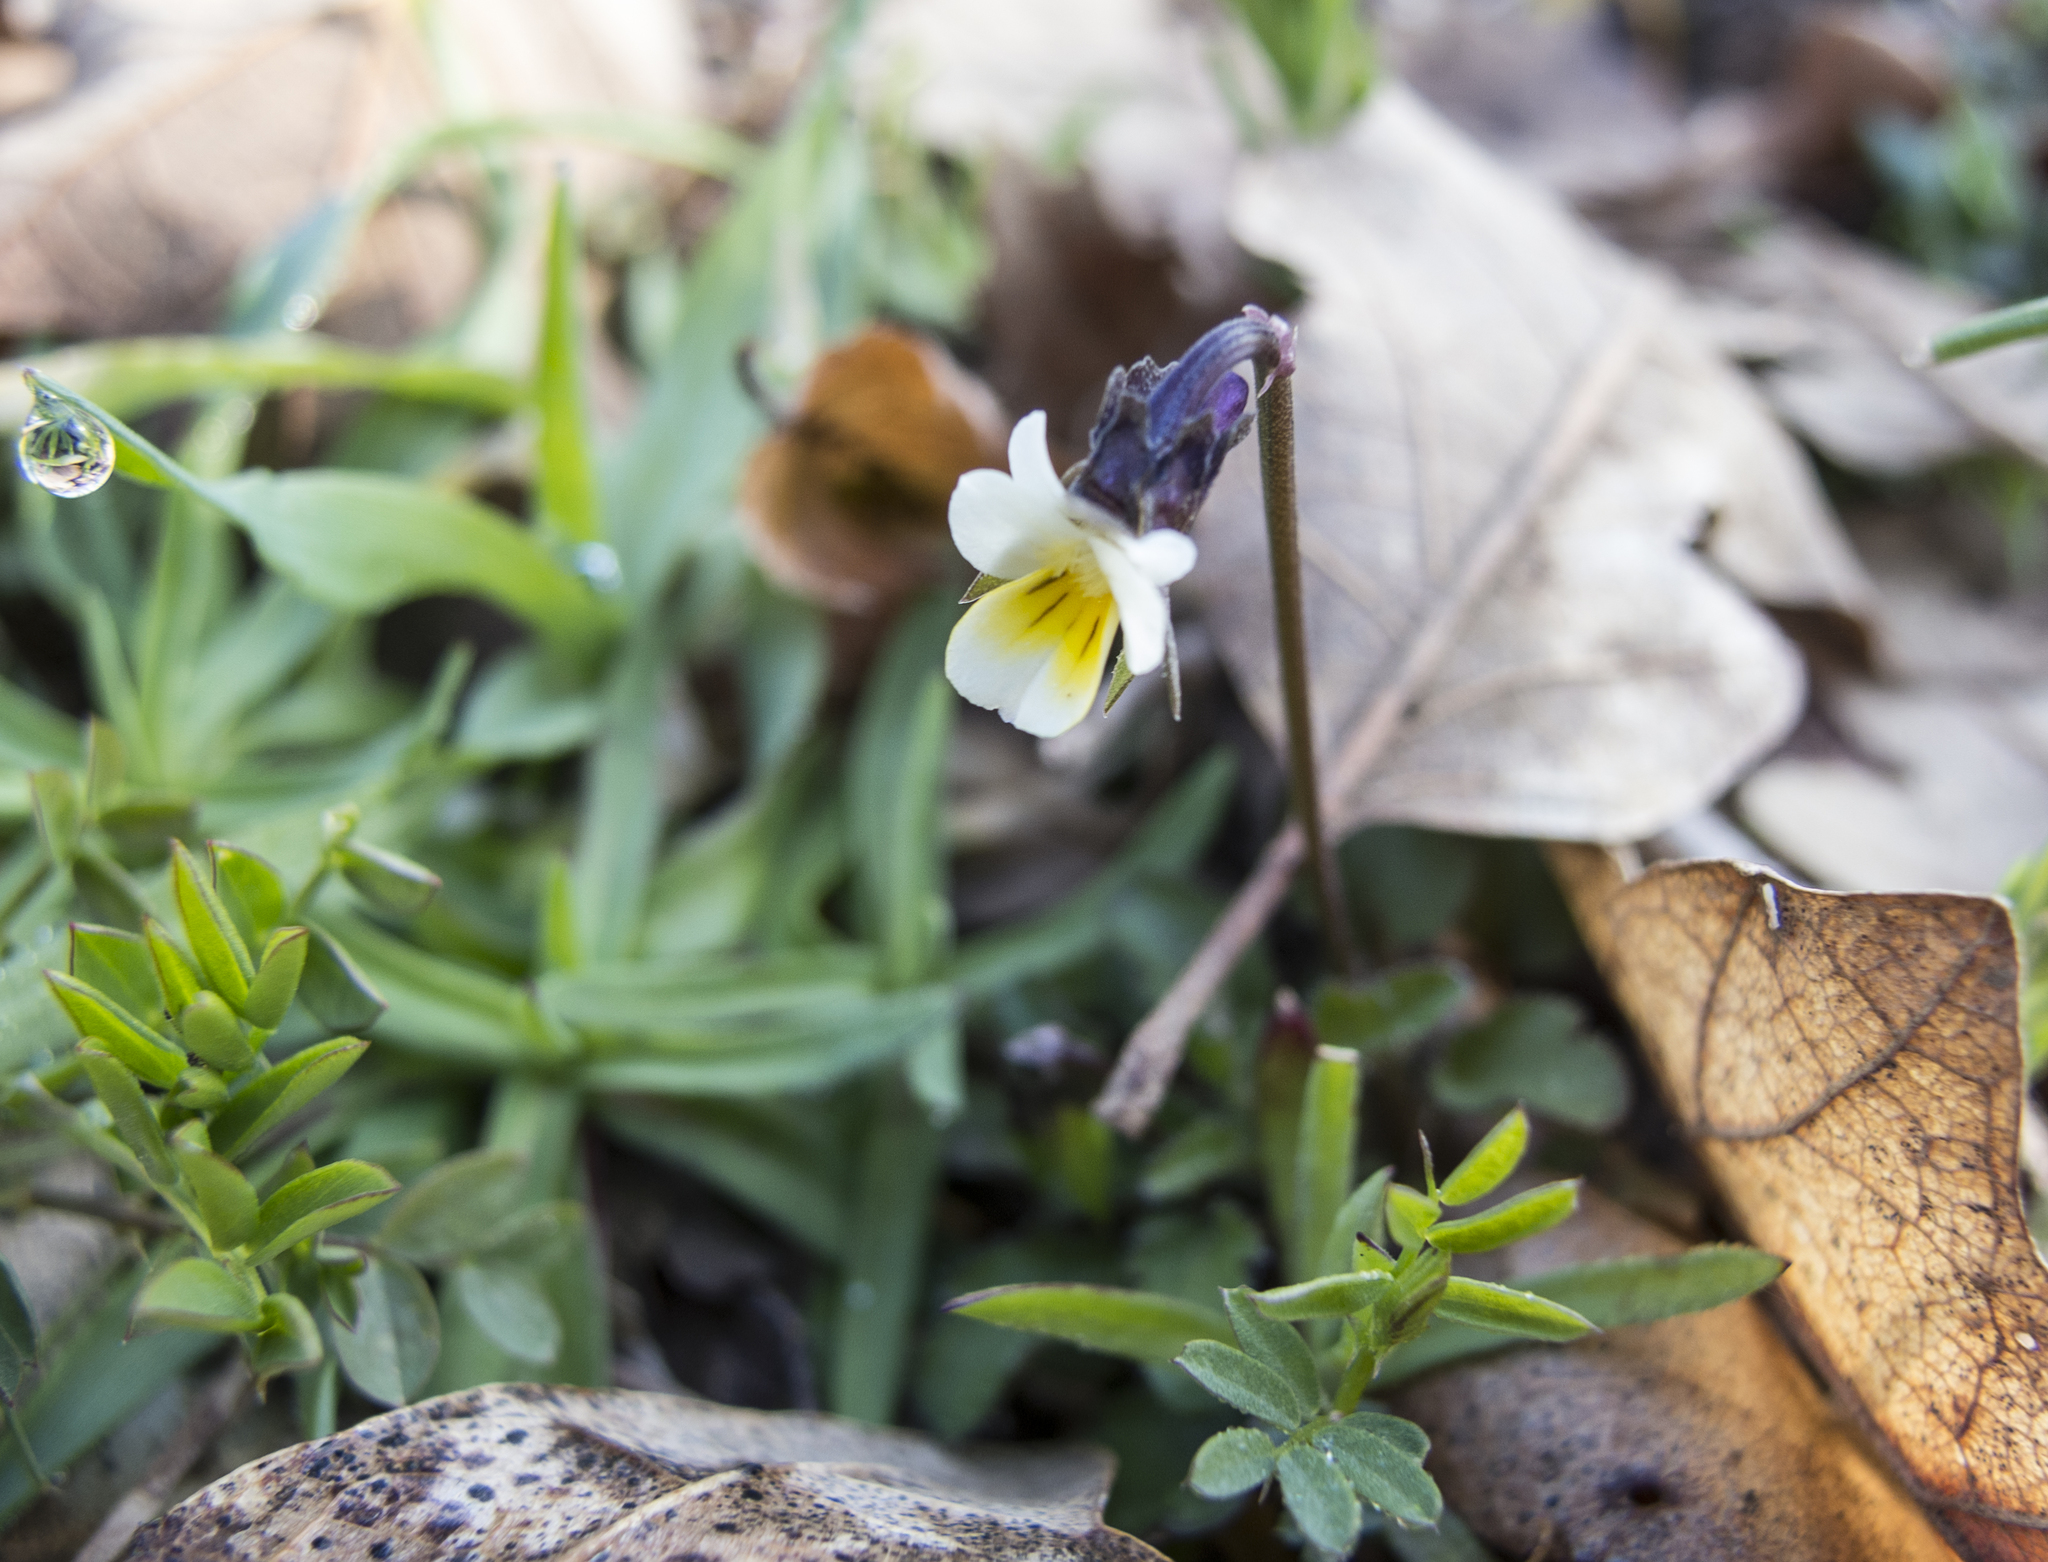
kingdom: Plantae
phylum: Tracheophyta
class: Magnoliopsida
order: Malpighiales
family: Violaceae
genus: Viola
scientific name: Viola arvensis
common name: Field pansy
